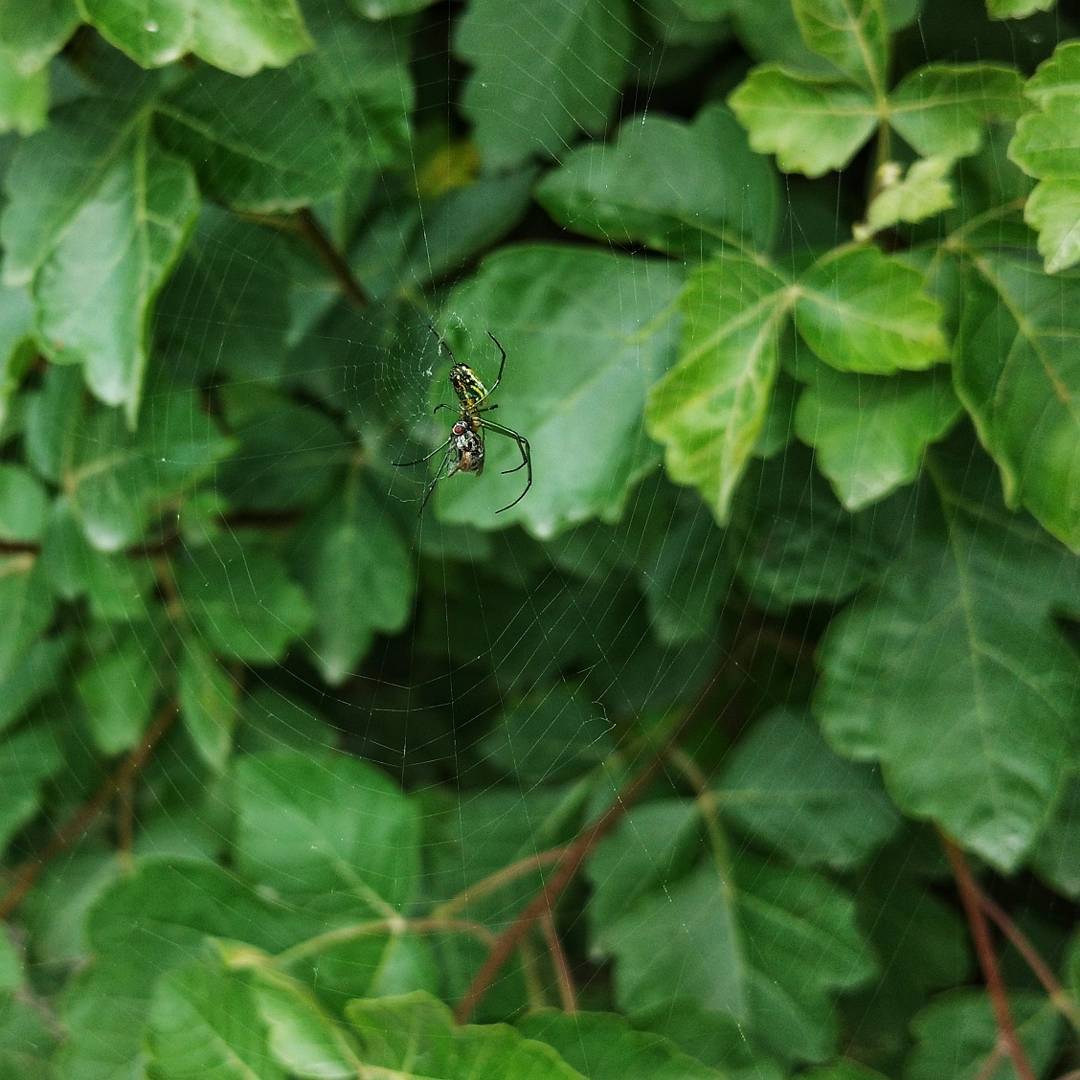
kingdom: Animalia
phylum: Arthropoda
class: Arachnida
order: Araneae
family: Tetragnathidae
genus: Leucauge
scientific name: Leucauge venusta
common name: Longjawed orb weavers
